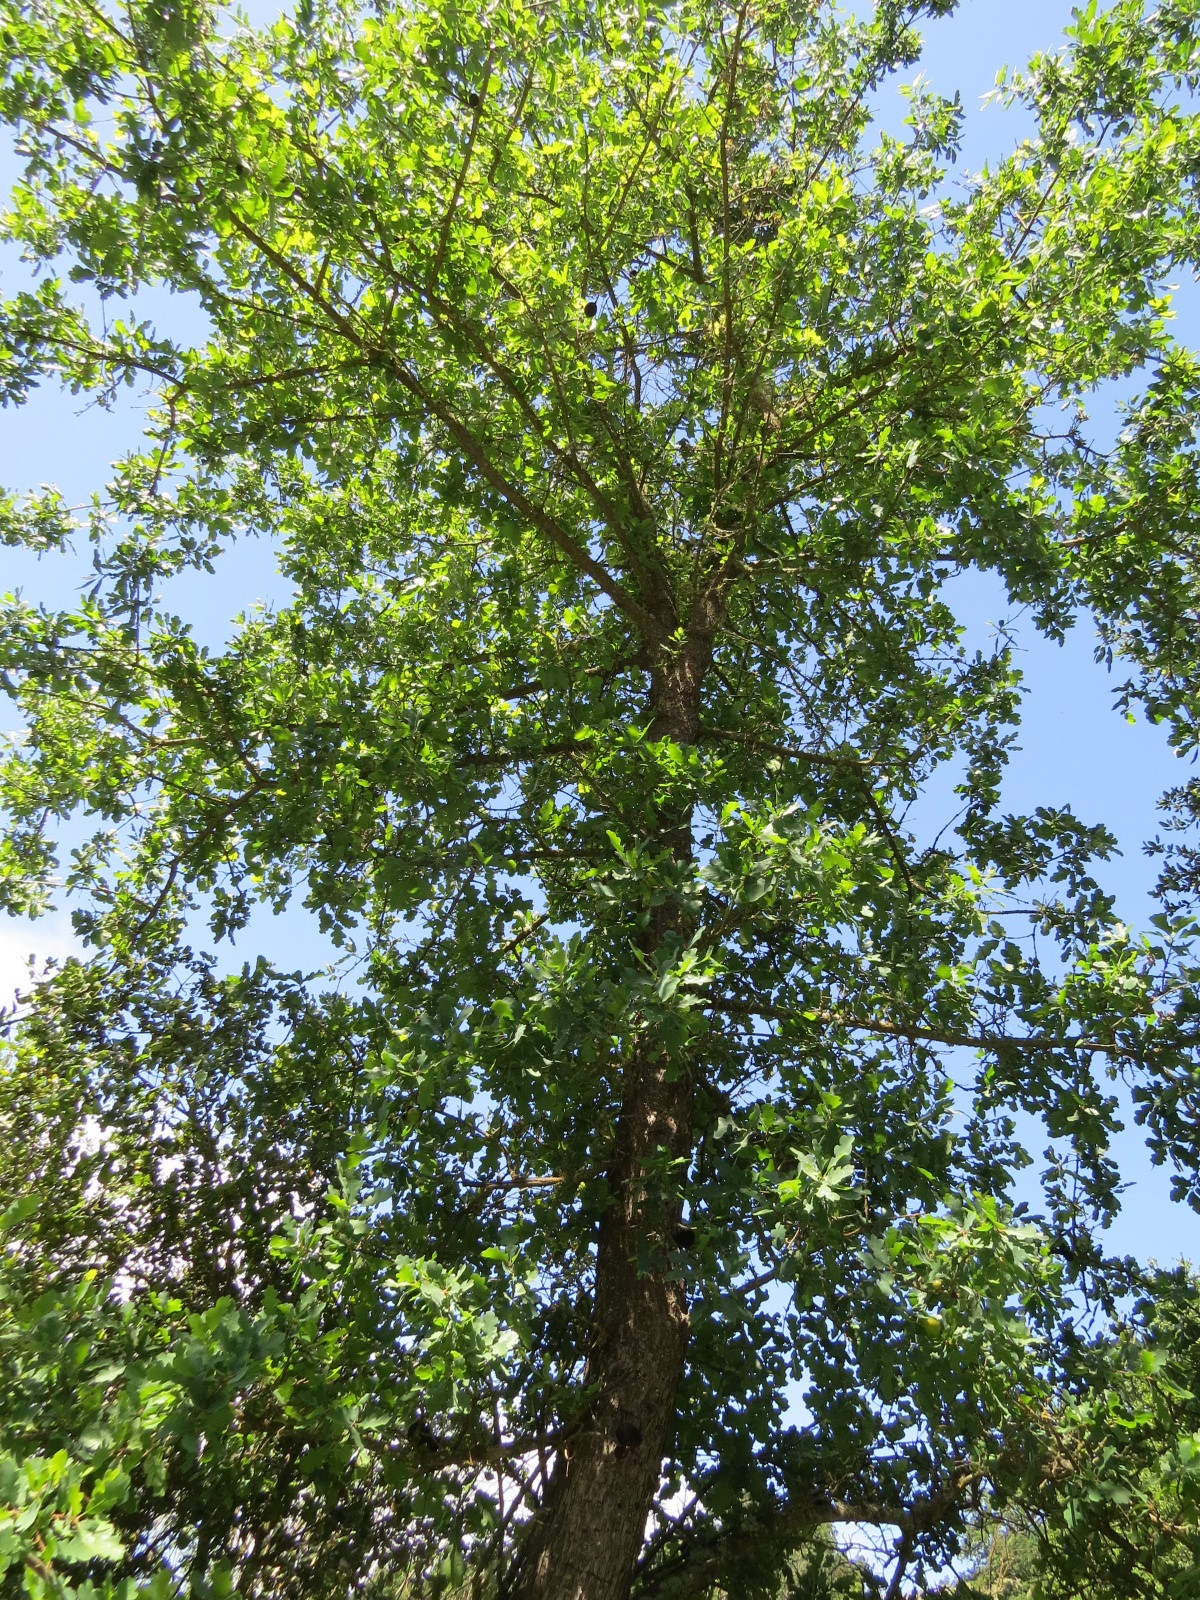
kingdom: Plantae
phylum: Tracheophyta
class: Magnoliopsida
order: Fagales
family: Fagaceae
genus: Quercus
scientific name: Quercus douglasii
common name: Blue oak
